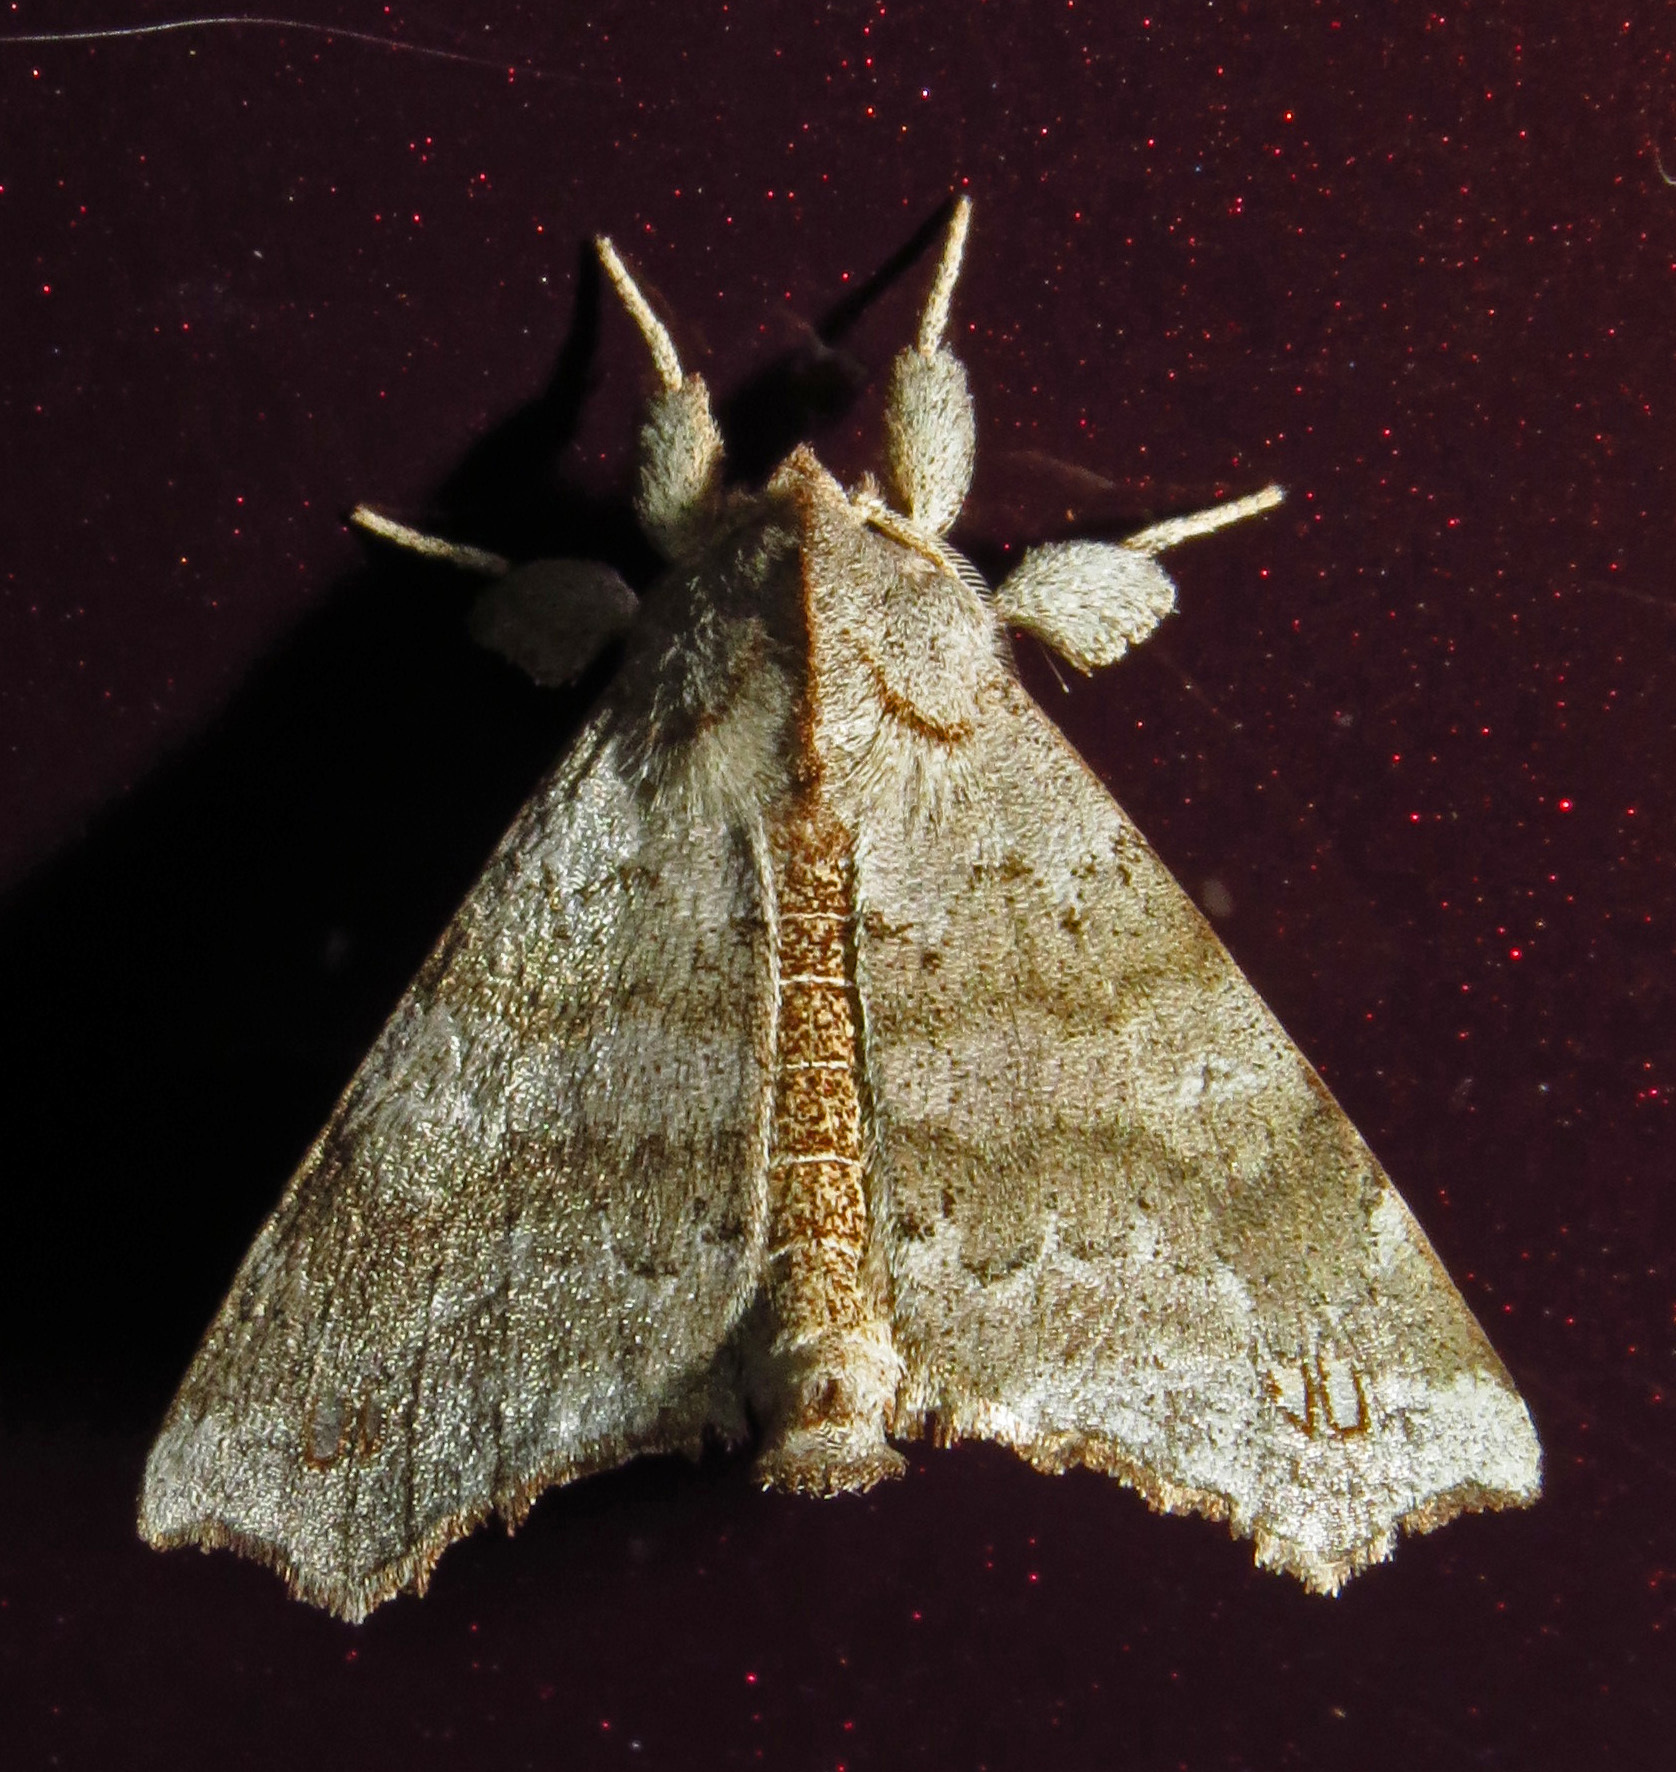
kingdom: Animalia
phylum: Arthropoda
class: Insecta
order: Lepidoptera
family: Apatelodidae
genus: Olceclostera
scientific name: Olceclostera angelica
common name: Angel moth
